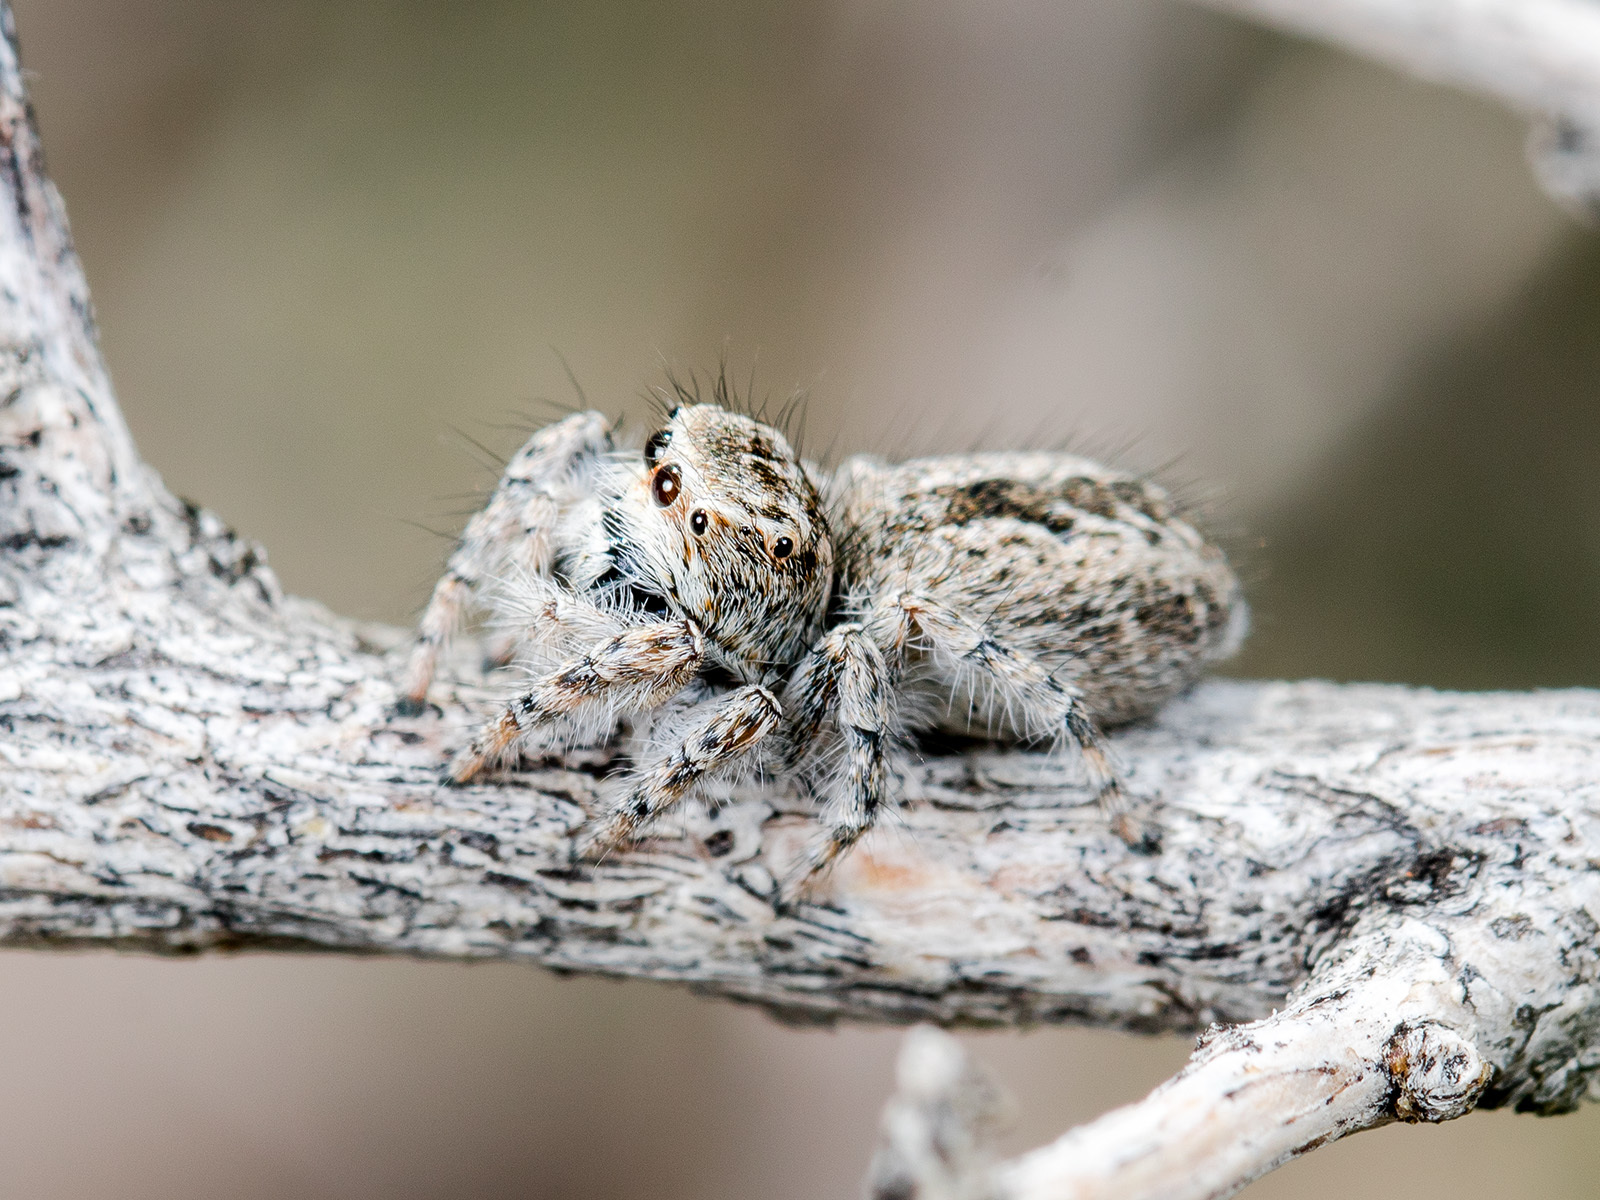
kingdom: Animalia
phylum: Arthropoda
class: Arachnida
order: Araneae
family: Salticidae
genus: Mogrus
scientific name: Mogrus valerii
